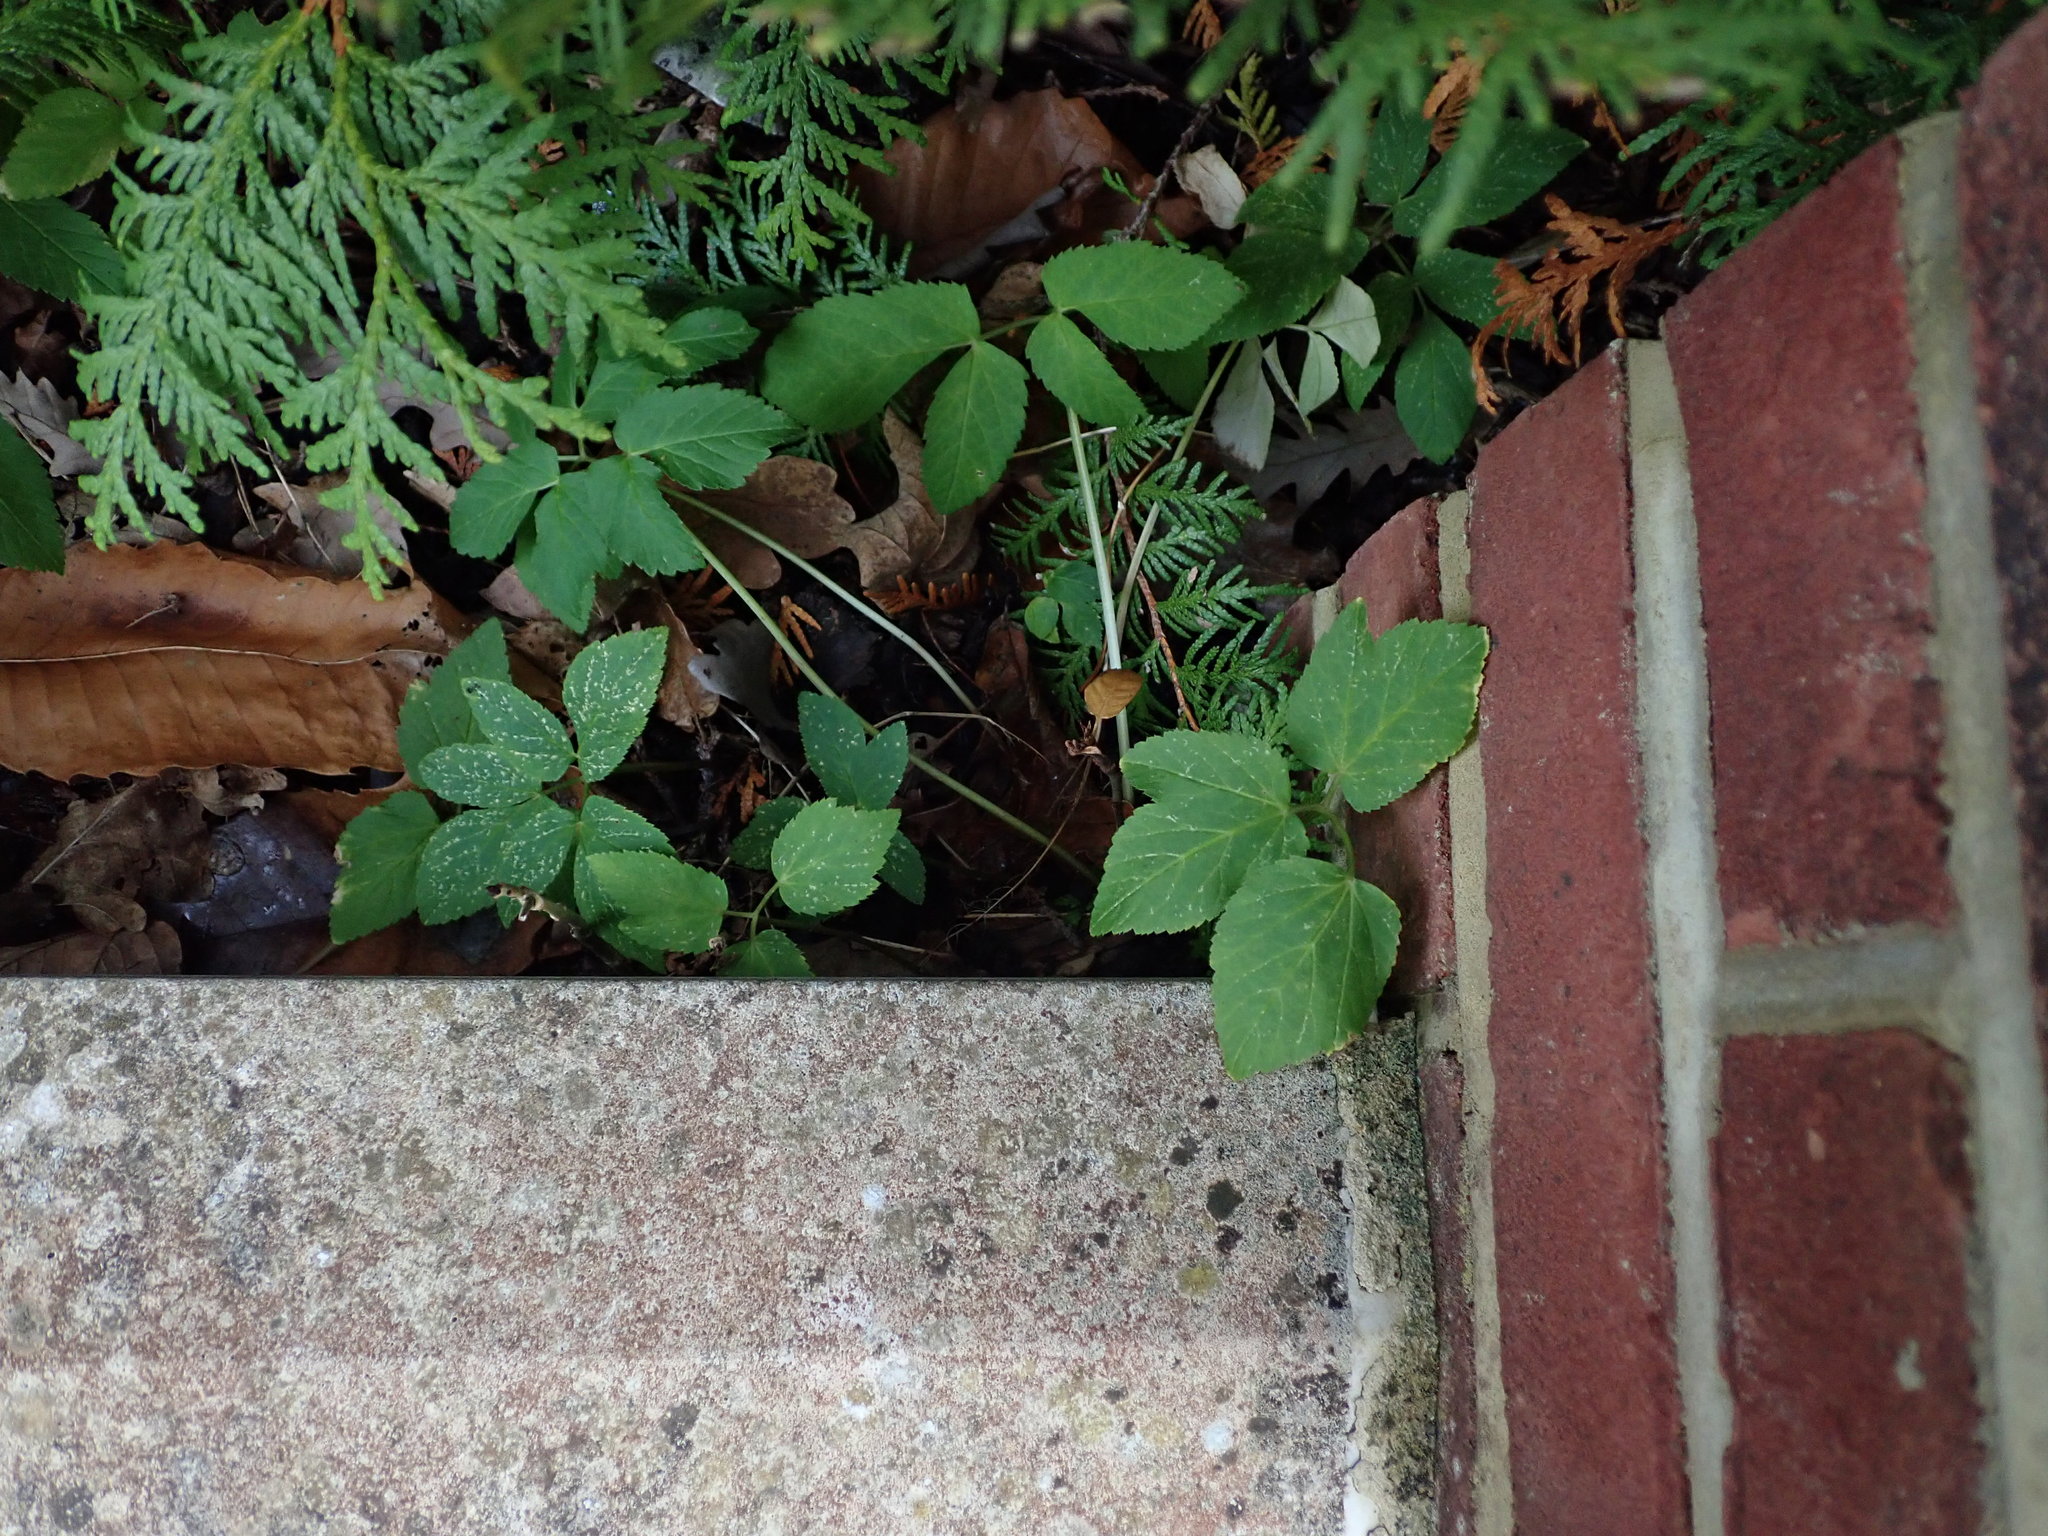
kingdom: Plantae
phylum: Tracheophyta
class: Magnoliopsida
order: Apiales
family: Apiaceae
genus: Aegopodium
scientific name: Aegopodium podagraria
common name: Ground-elder
